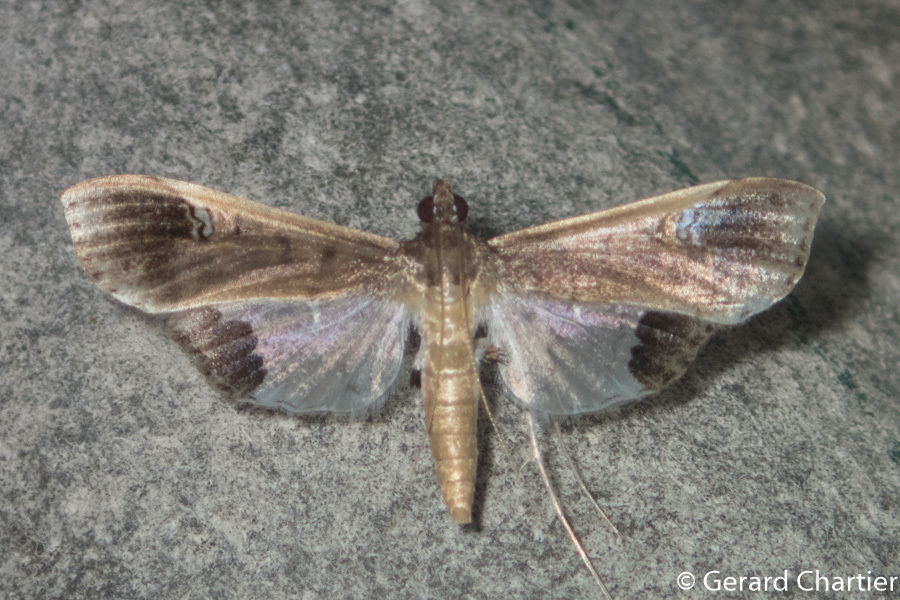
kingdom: Animalia
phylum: Arthropoda
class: Insecta
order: Lepidoptera
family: Crambidae
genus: Maruca
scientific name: Maruca amboinalis
